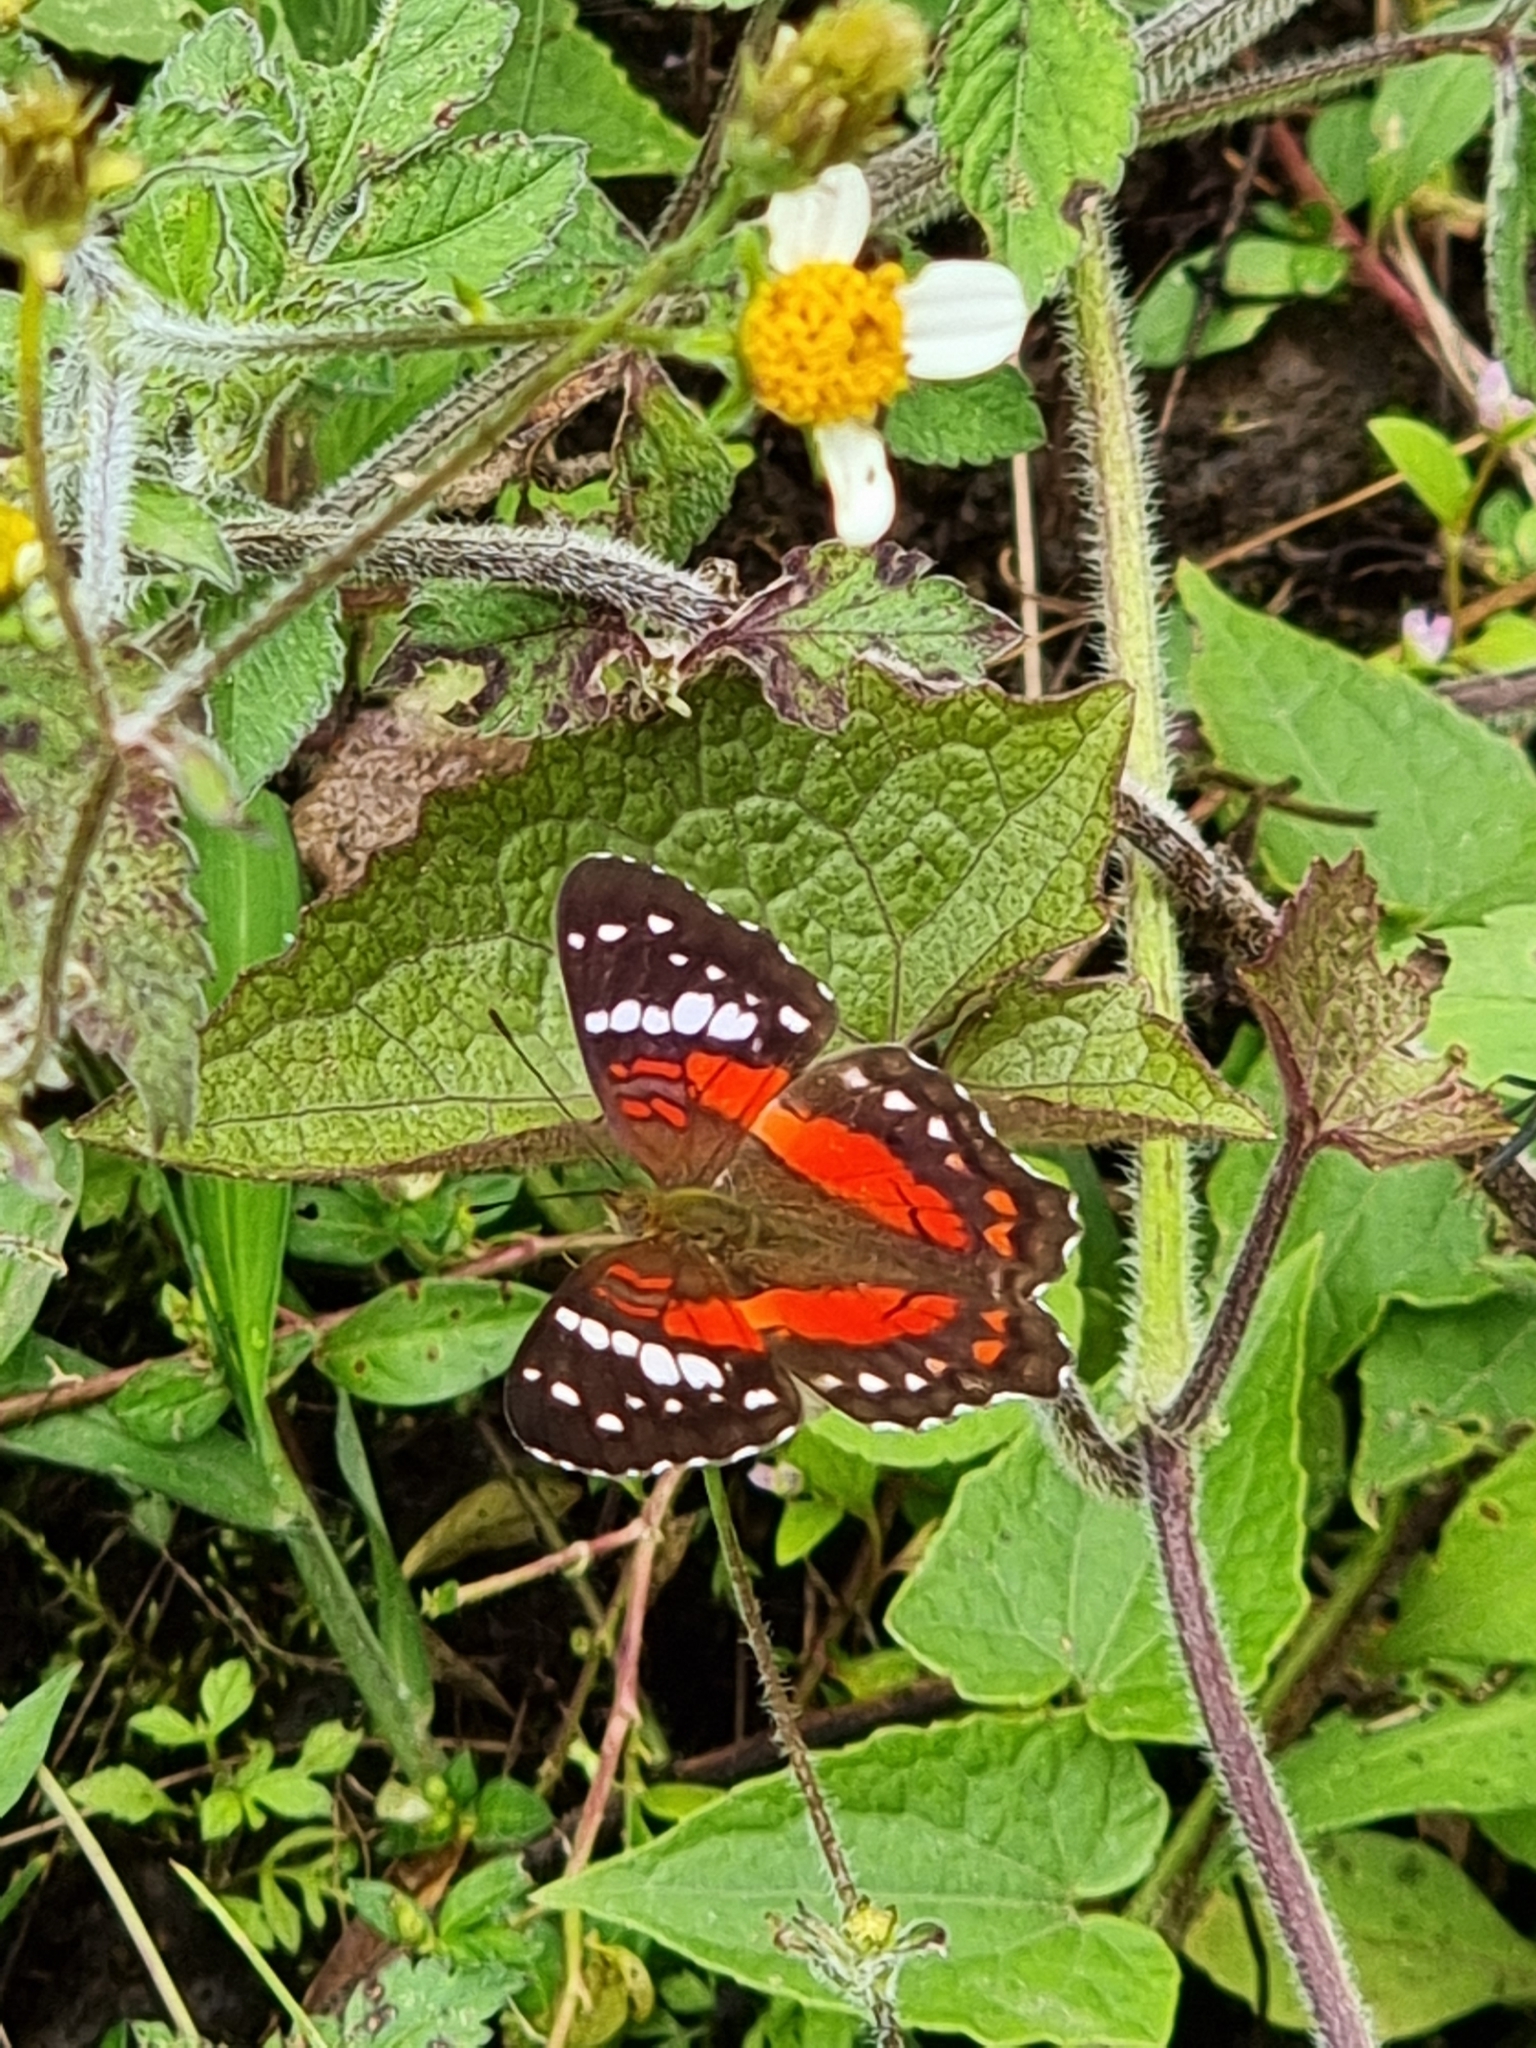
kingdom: Animalia
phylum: Arthropoda
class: Insecta
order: Lepidoptera
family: Nymphalidae
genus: Anartia
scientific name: Anartia amathea
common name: Red peacock
